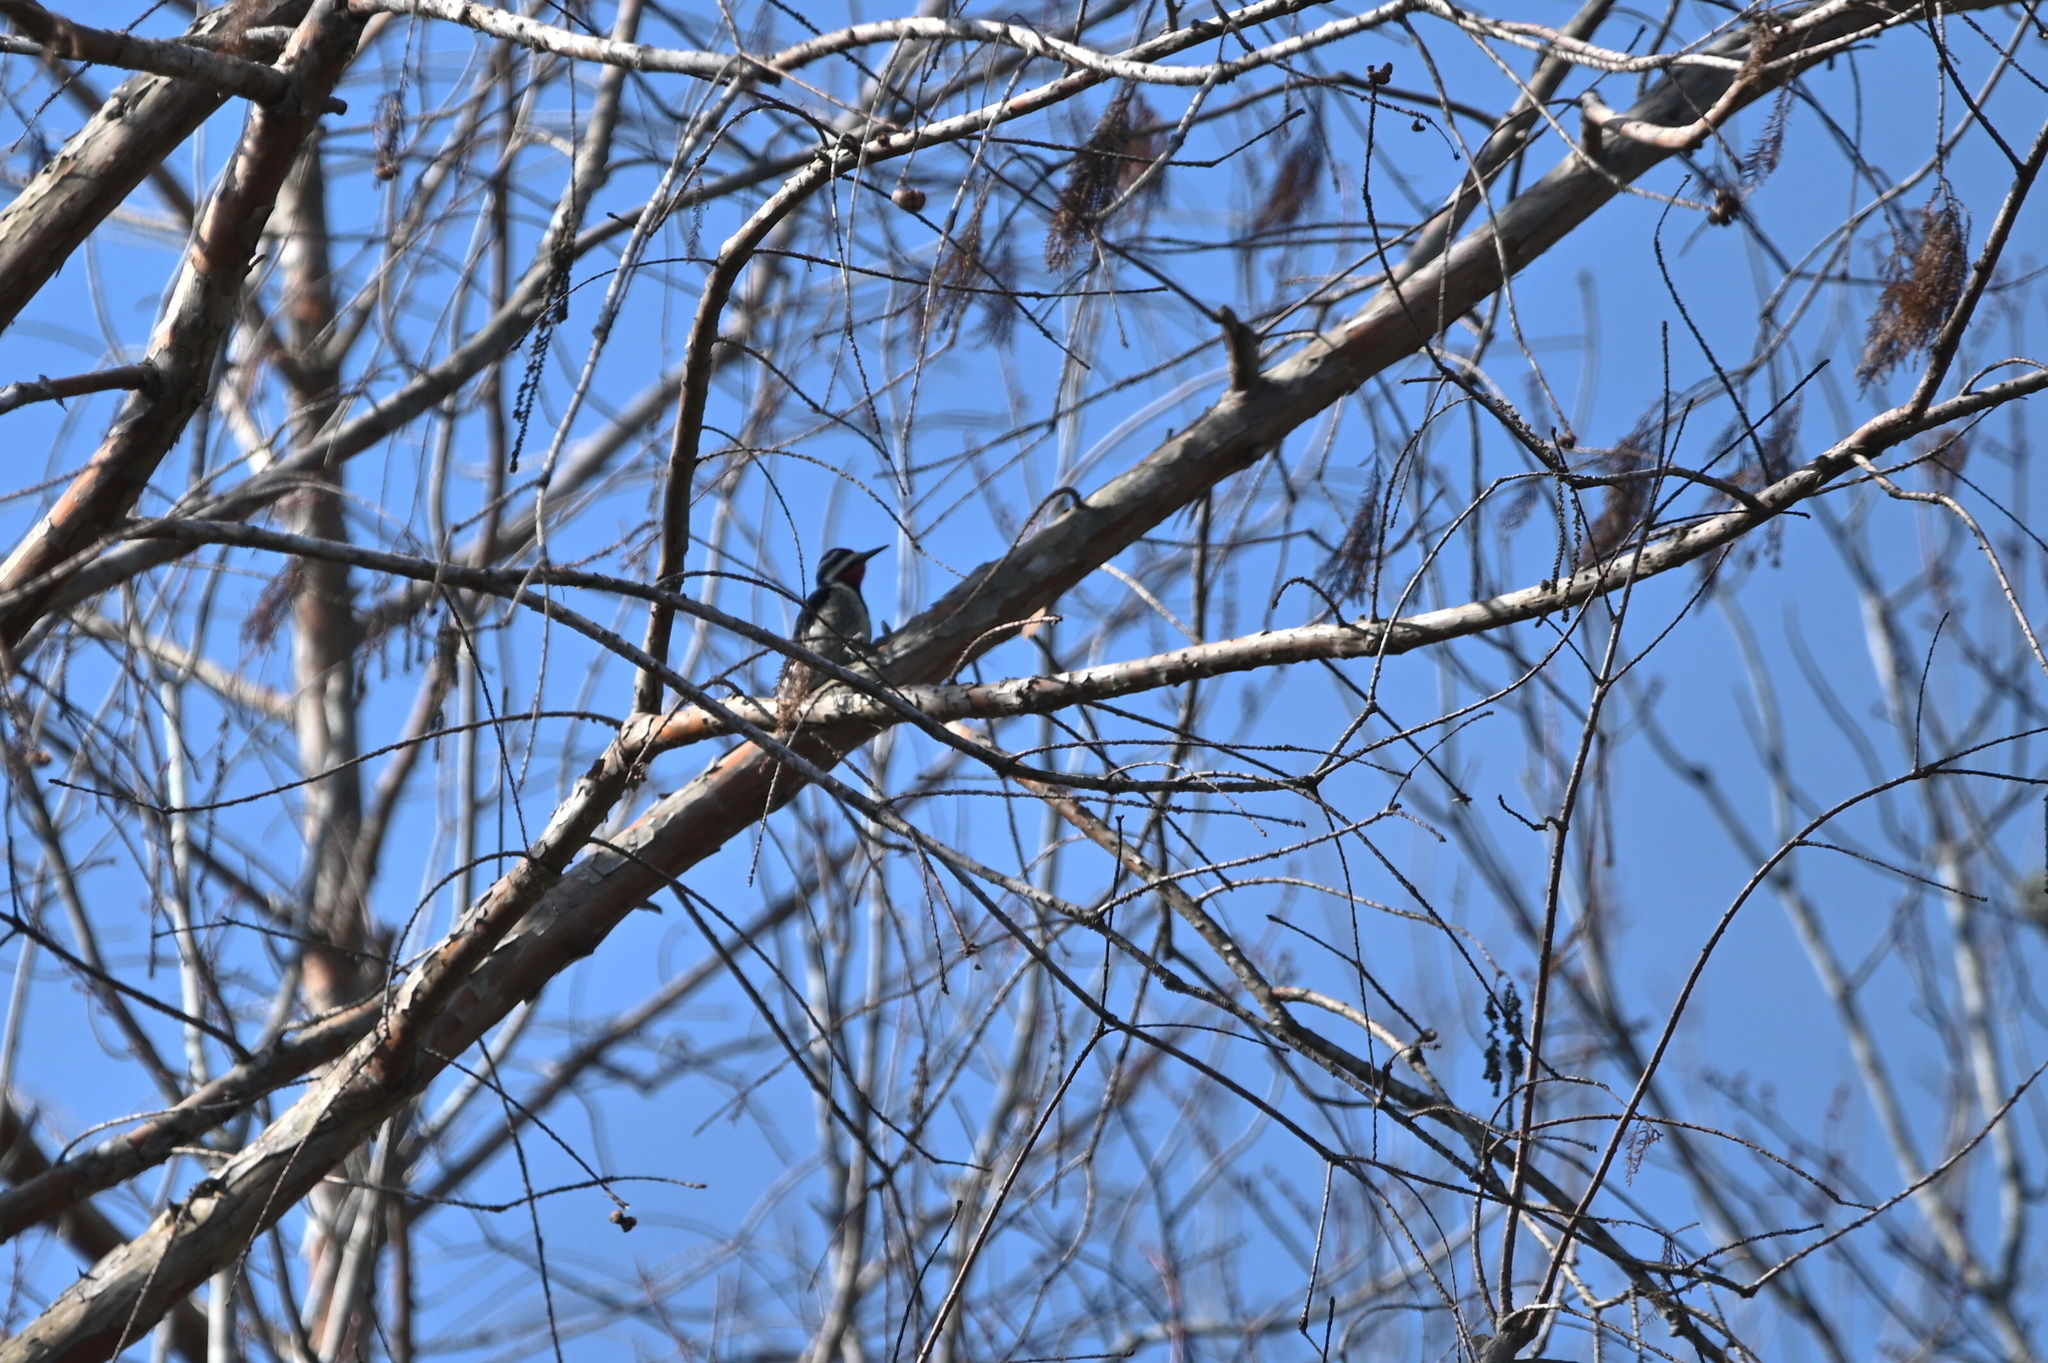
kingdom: Animalia
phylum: Chordata
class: Aves
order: Piciformes
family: Picidae
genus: Sphyrapicus
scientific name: Sphyrapicus varius
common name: Yellow-bellied sapsucker
